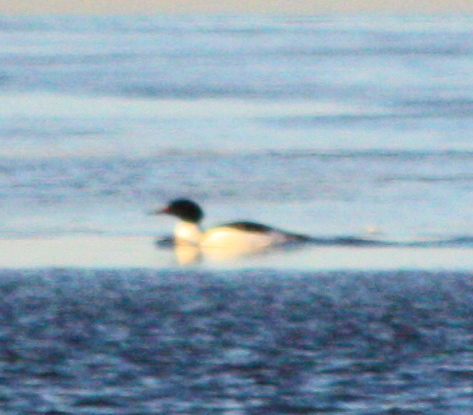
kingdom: Animalia
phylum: Chordata
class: Aves
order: Anseriformes
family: Anatidae
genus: Mergus
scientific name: Mergus merganser
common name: Common merganser
